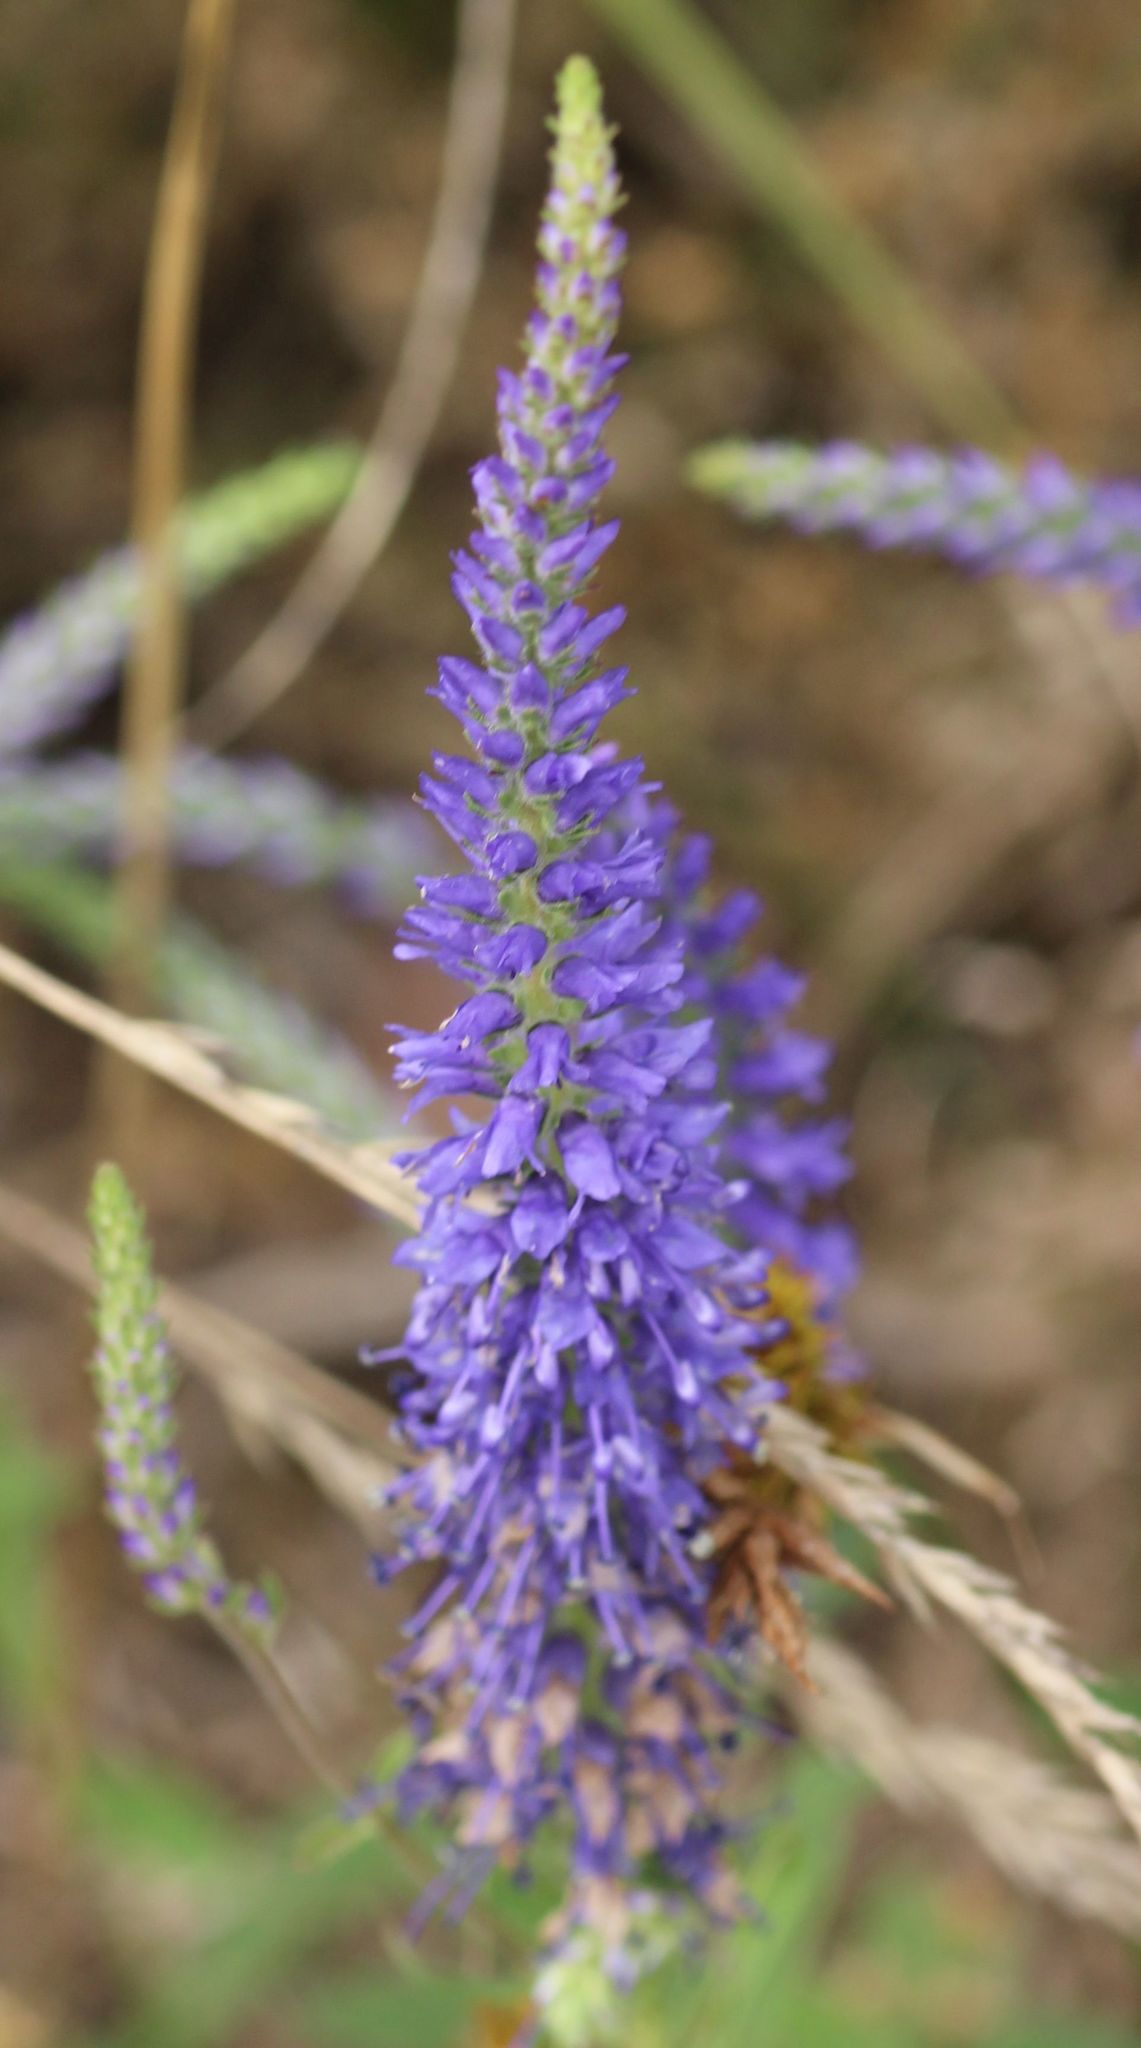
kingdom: Plantae
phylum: Tracheophyta
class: Magnoliopsida
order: Lamiales
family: Plantaginaceae
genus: Veronica
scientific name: Veronica spicata
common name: Spiked speedwell
